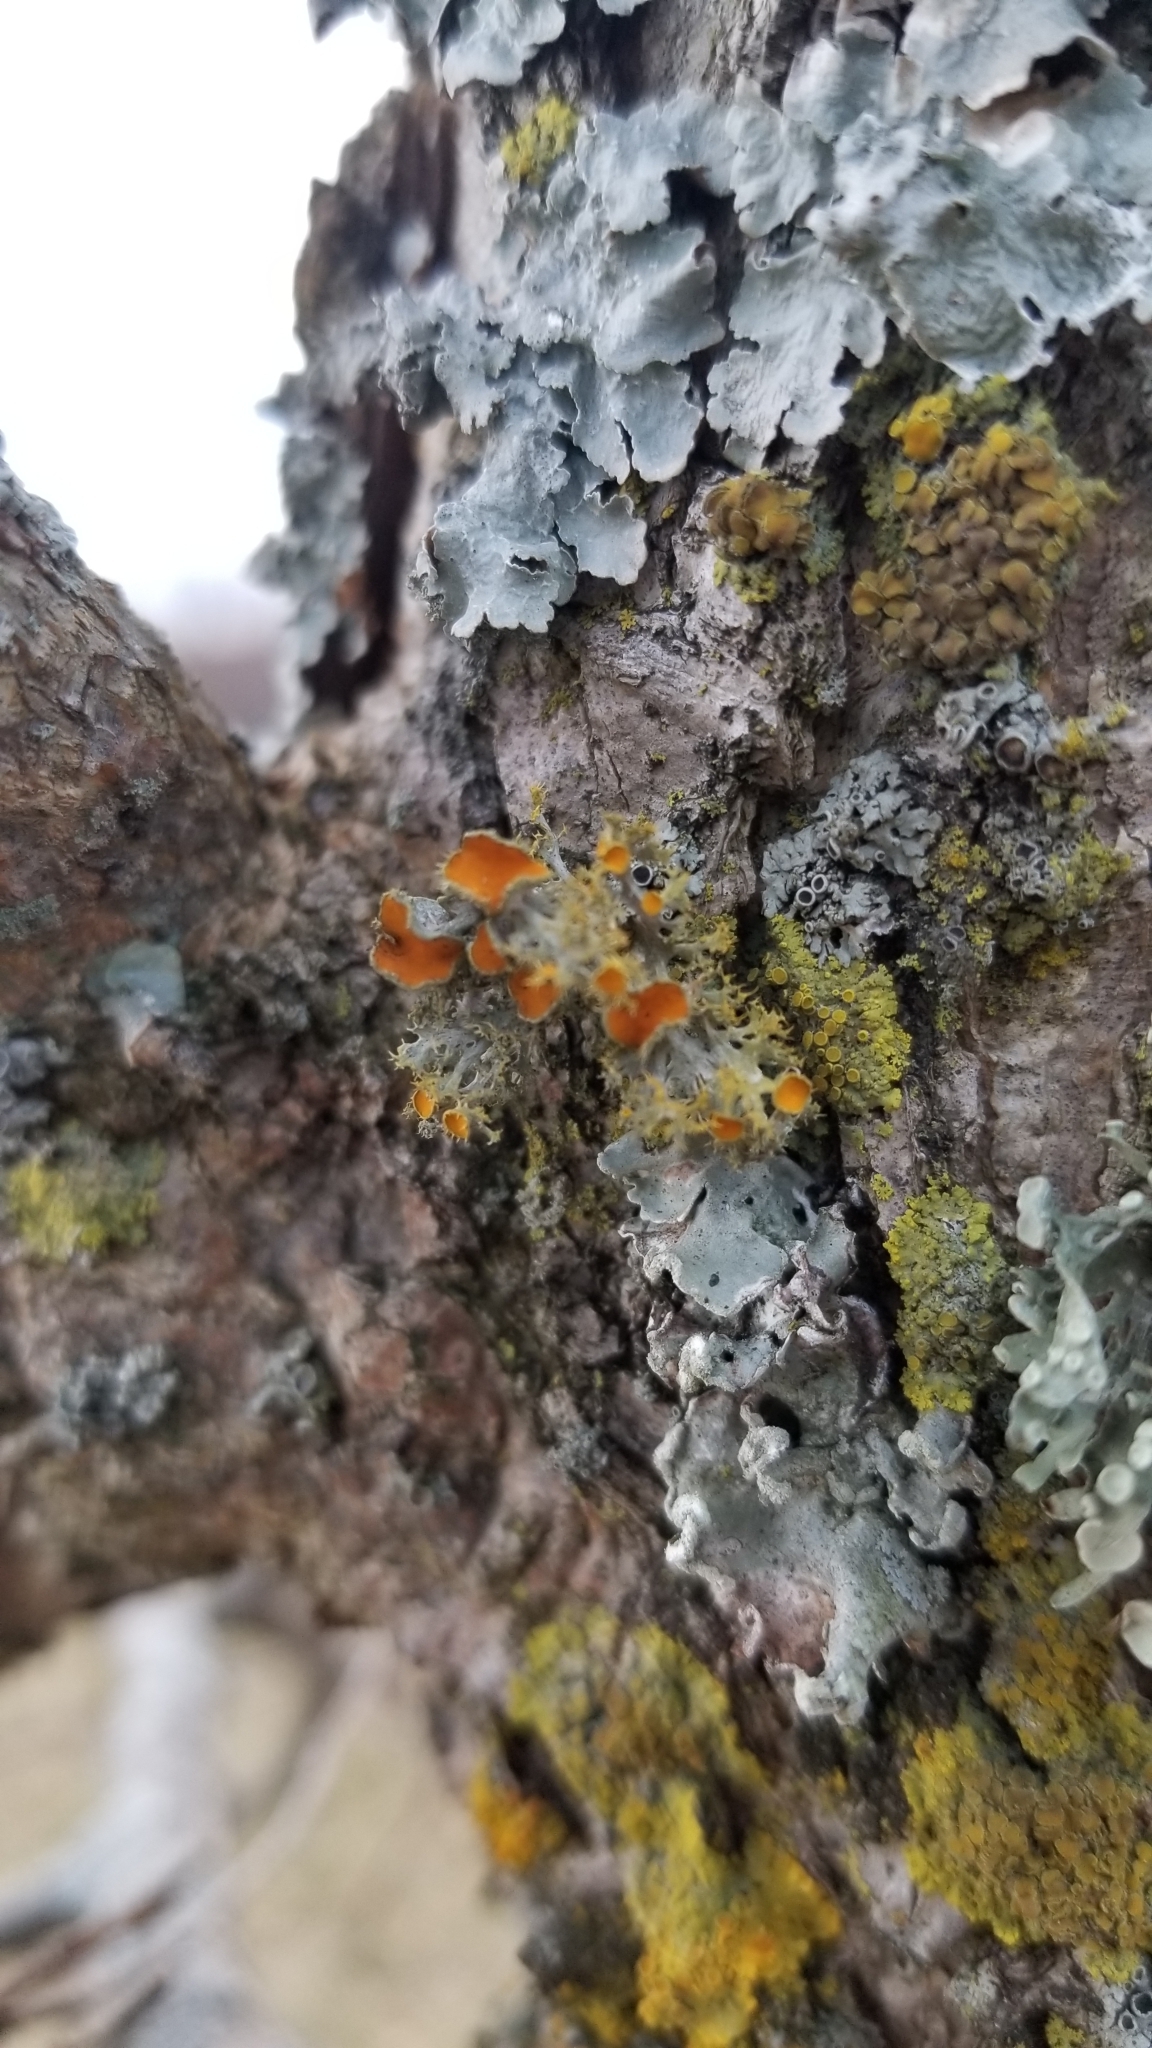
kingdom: Fungi
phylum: Ascomycota
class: Lecanoromycetes
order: Teloschistales
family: Teloschistaceae
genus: Niorma
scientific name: Niorma chrysophthalma
